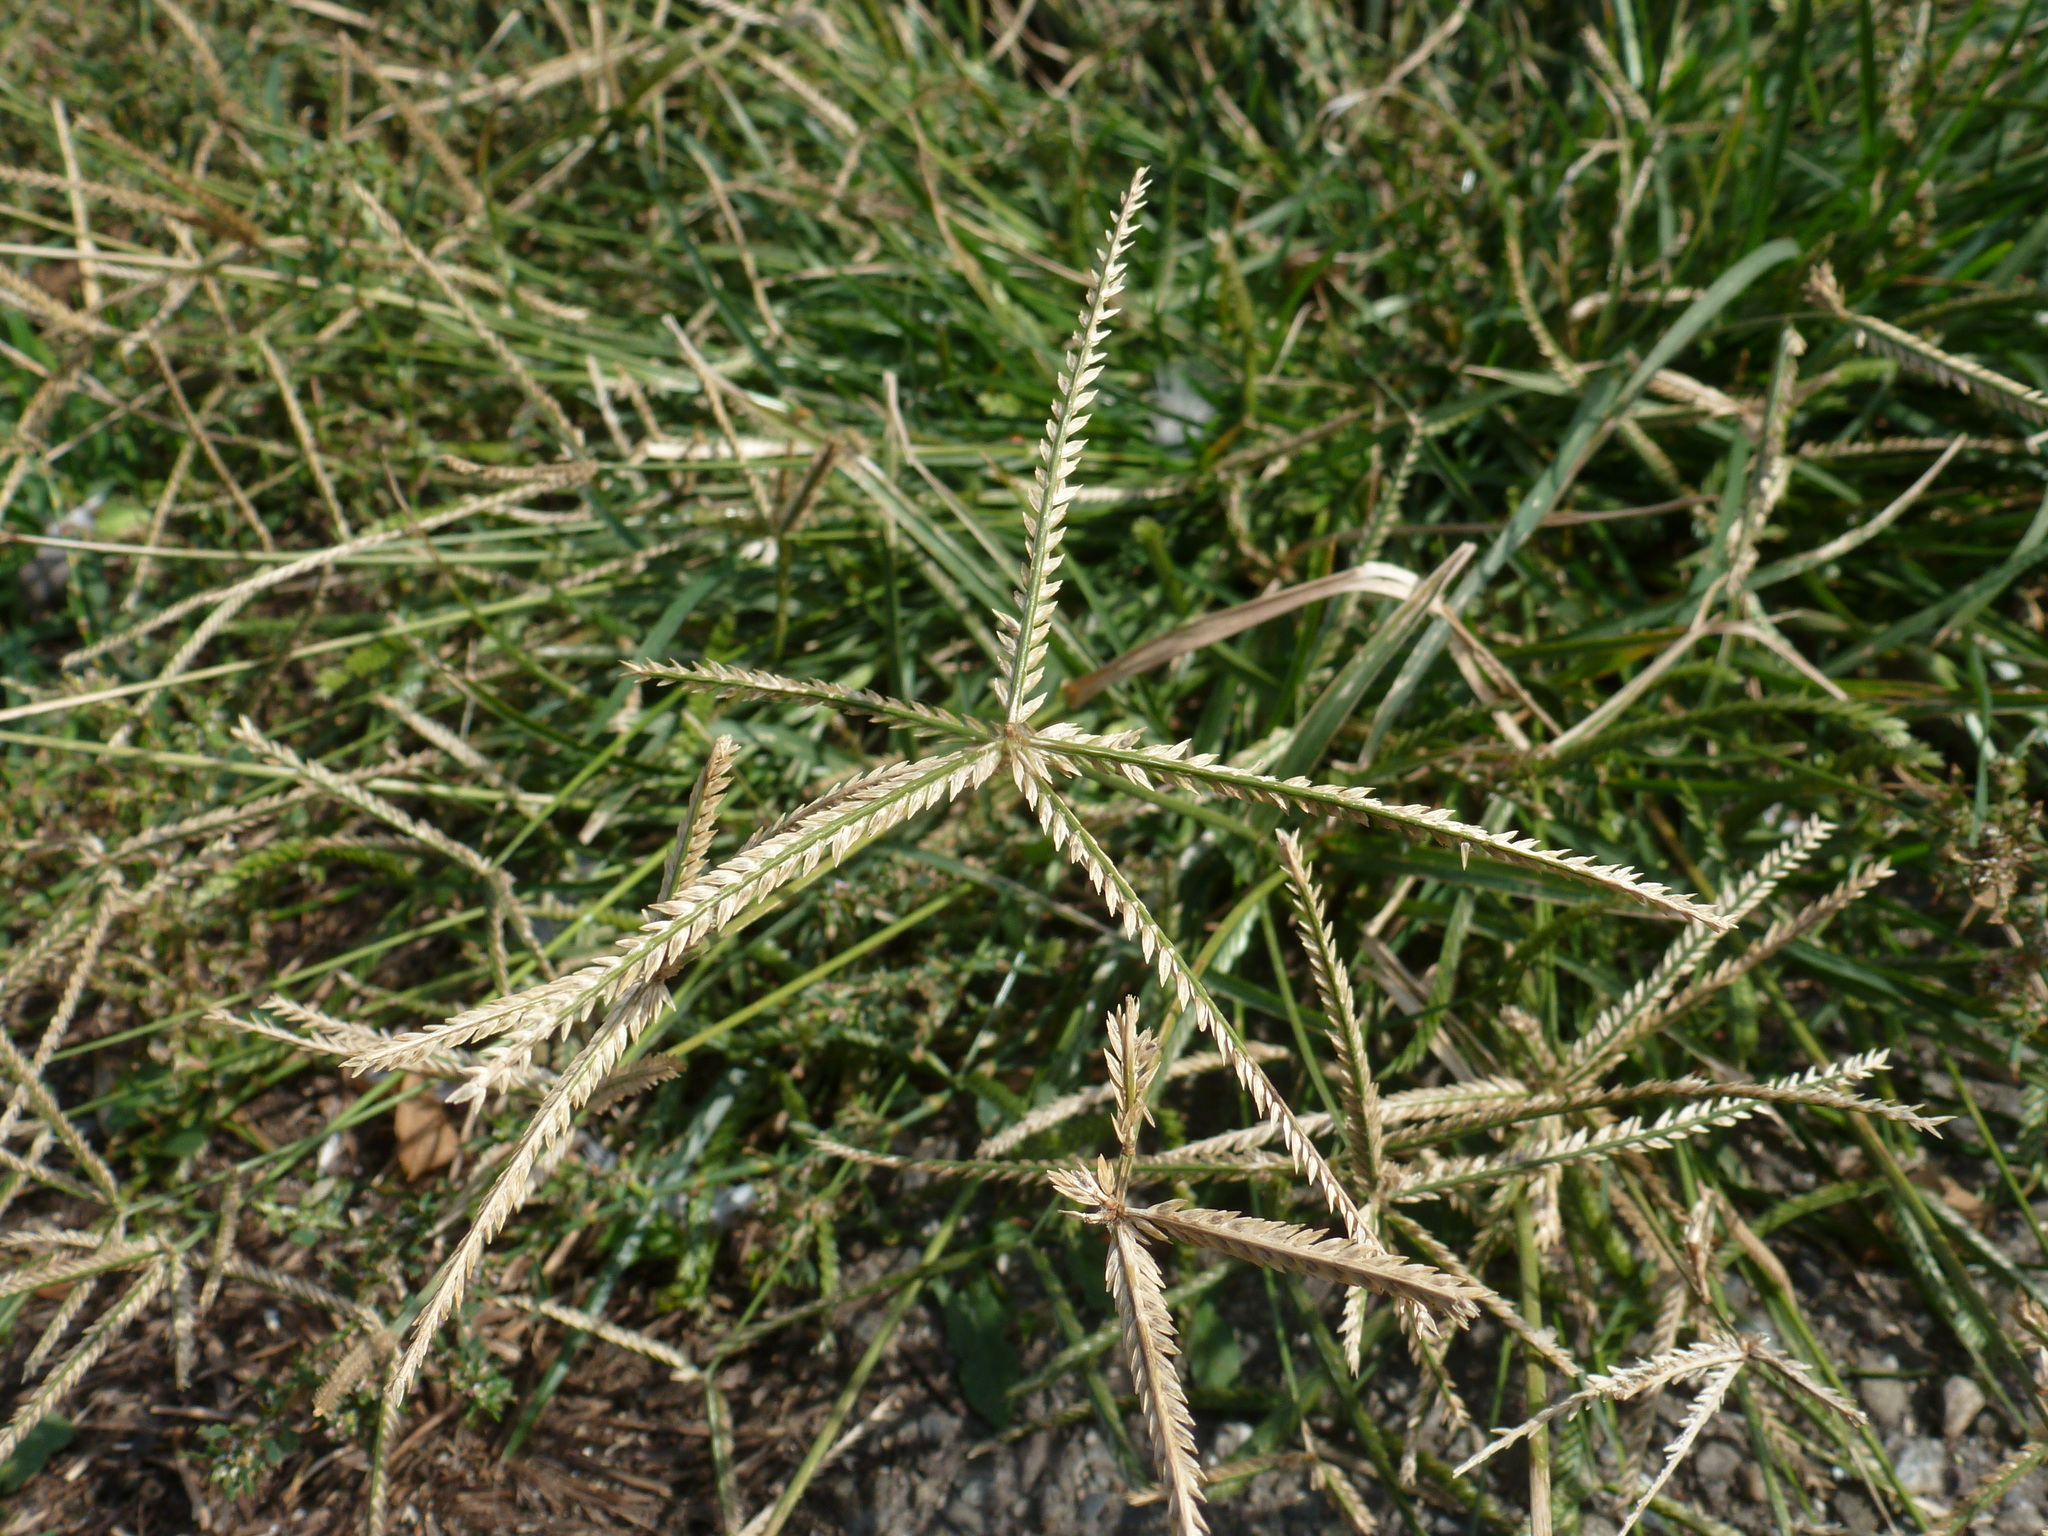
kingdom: Plantae
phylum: Tracheophyta
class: Liliopsida
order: Poales
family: Poaceae
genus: Eleusine
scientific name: Eleusine indica
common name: Yard-grass
